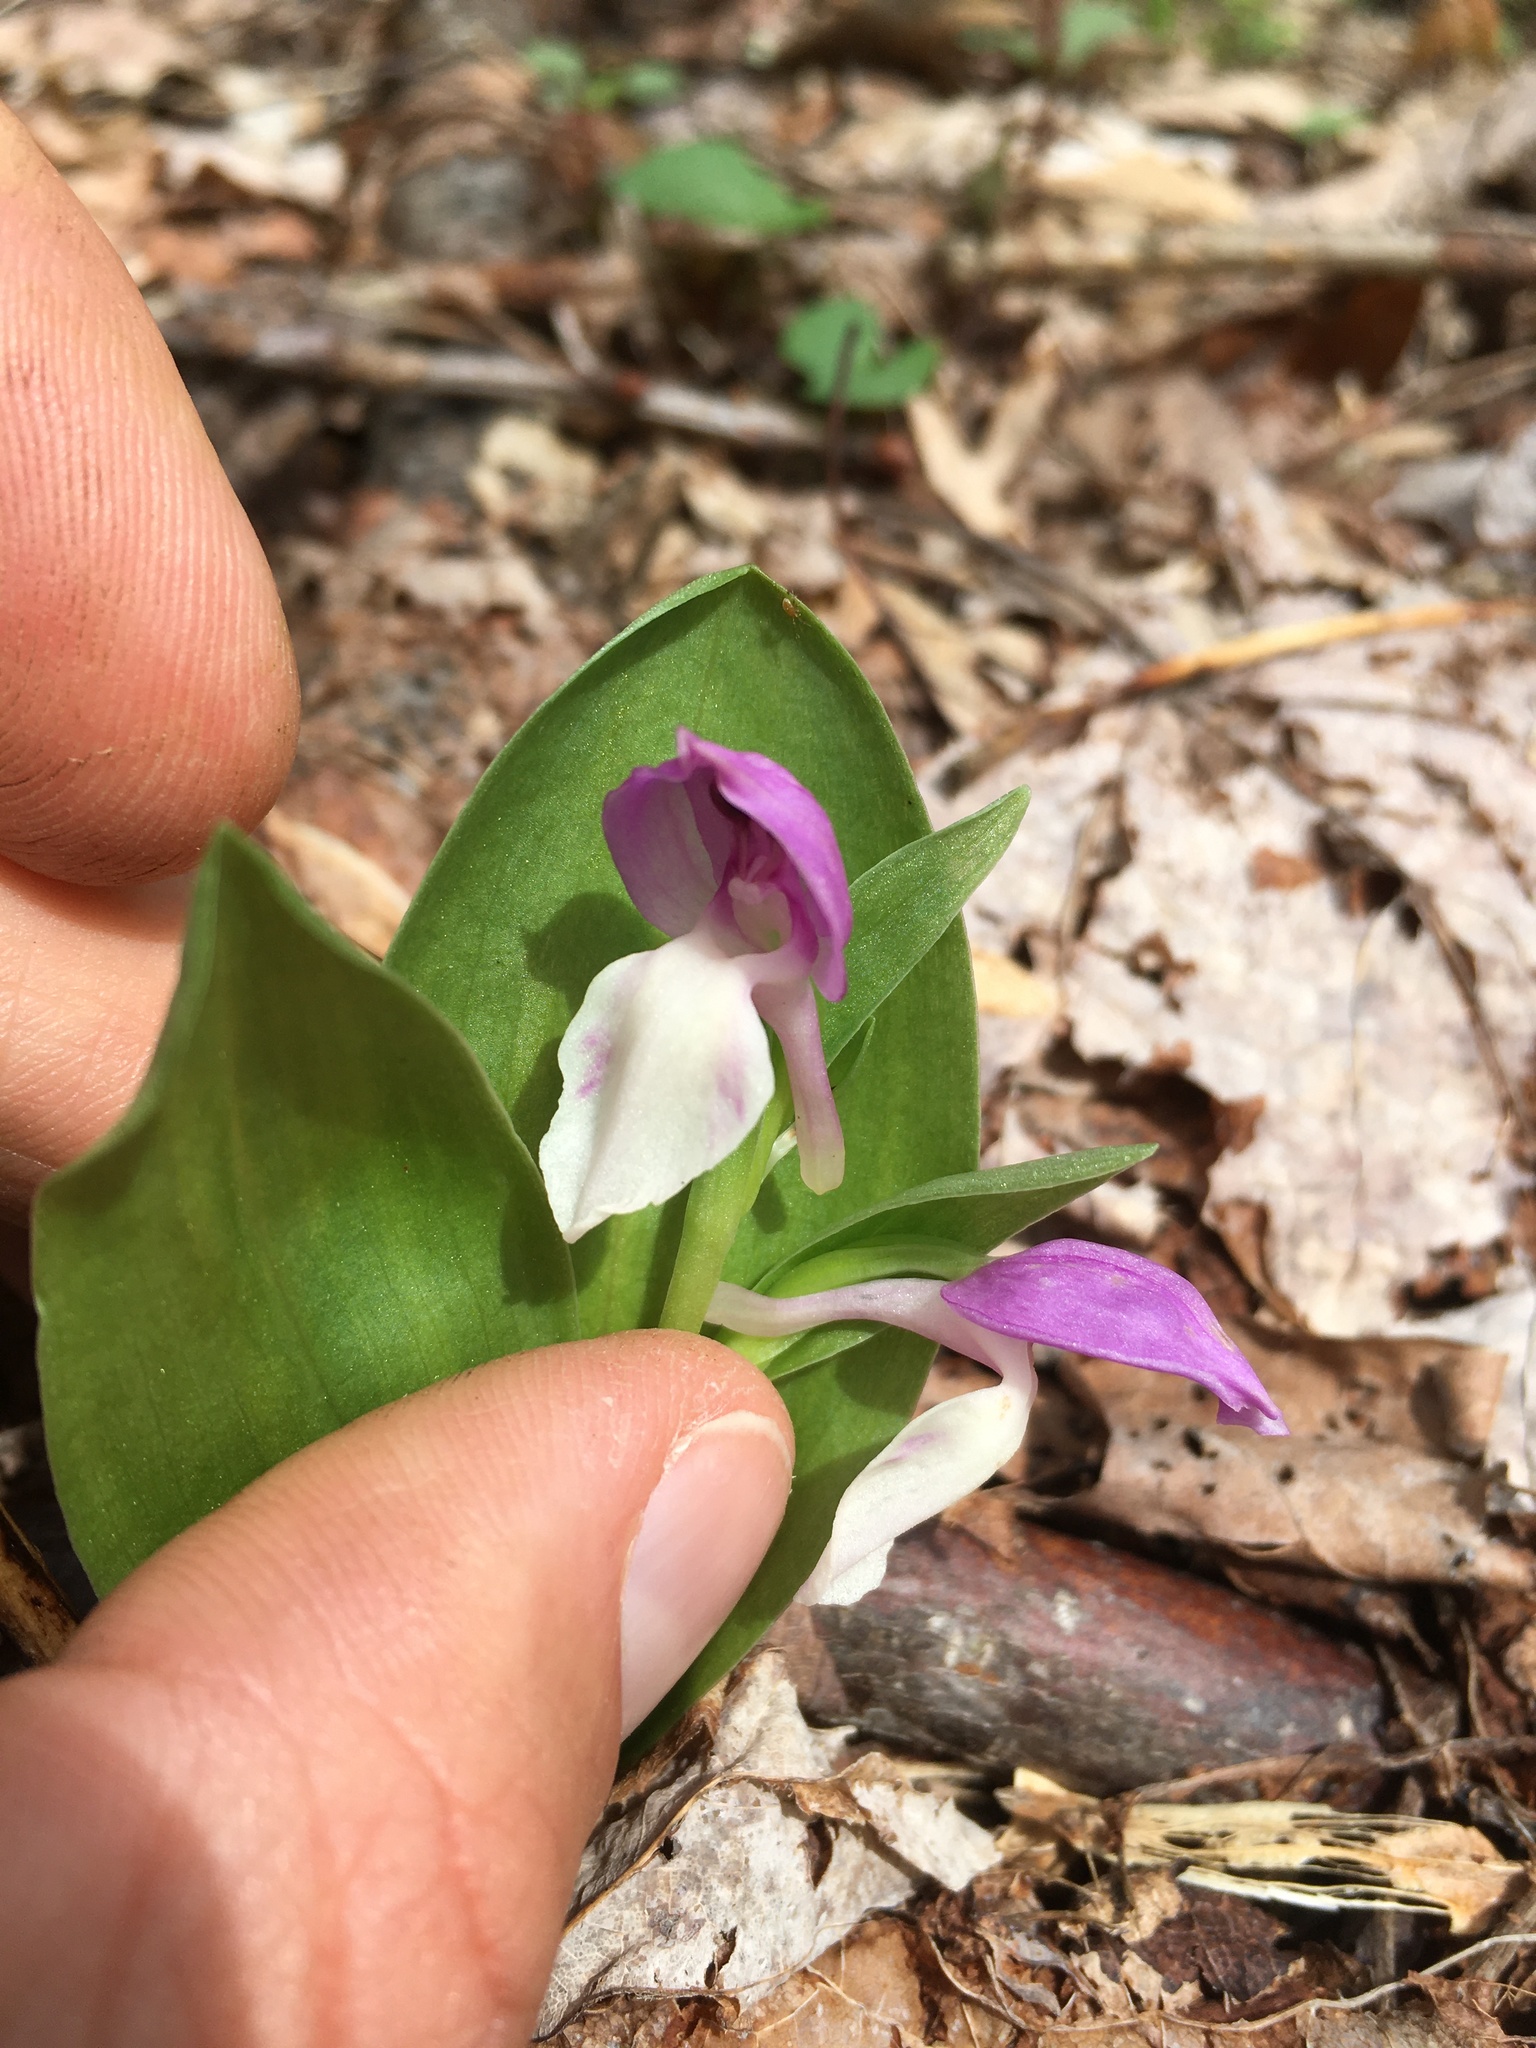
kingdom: Plantae
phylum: Tracheophyta
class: Liliopsida
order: Asparagales
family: Orchidaceae
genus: Galearis
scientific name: Galearis spectabilis
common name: Purple-hooded orchis
